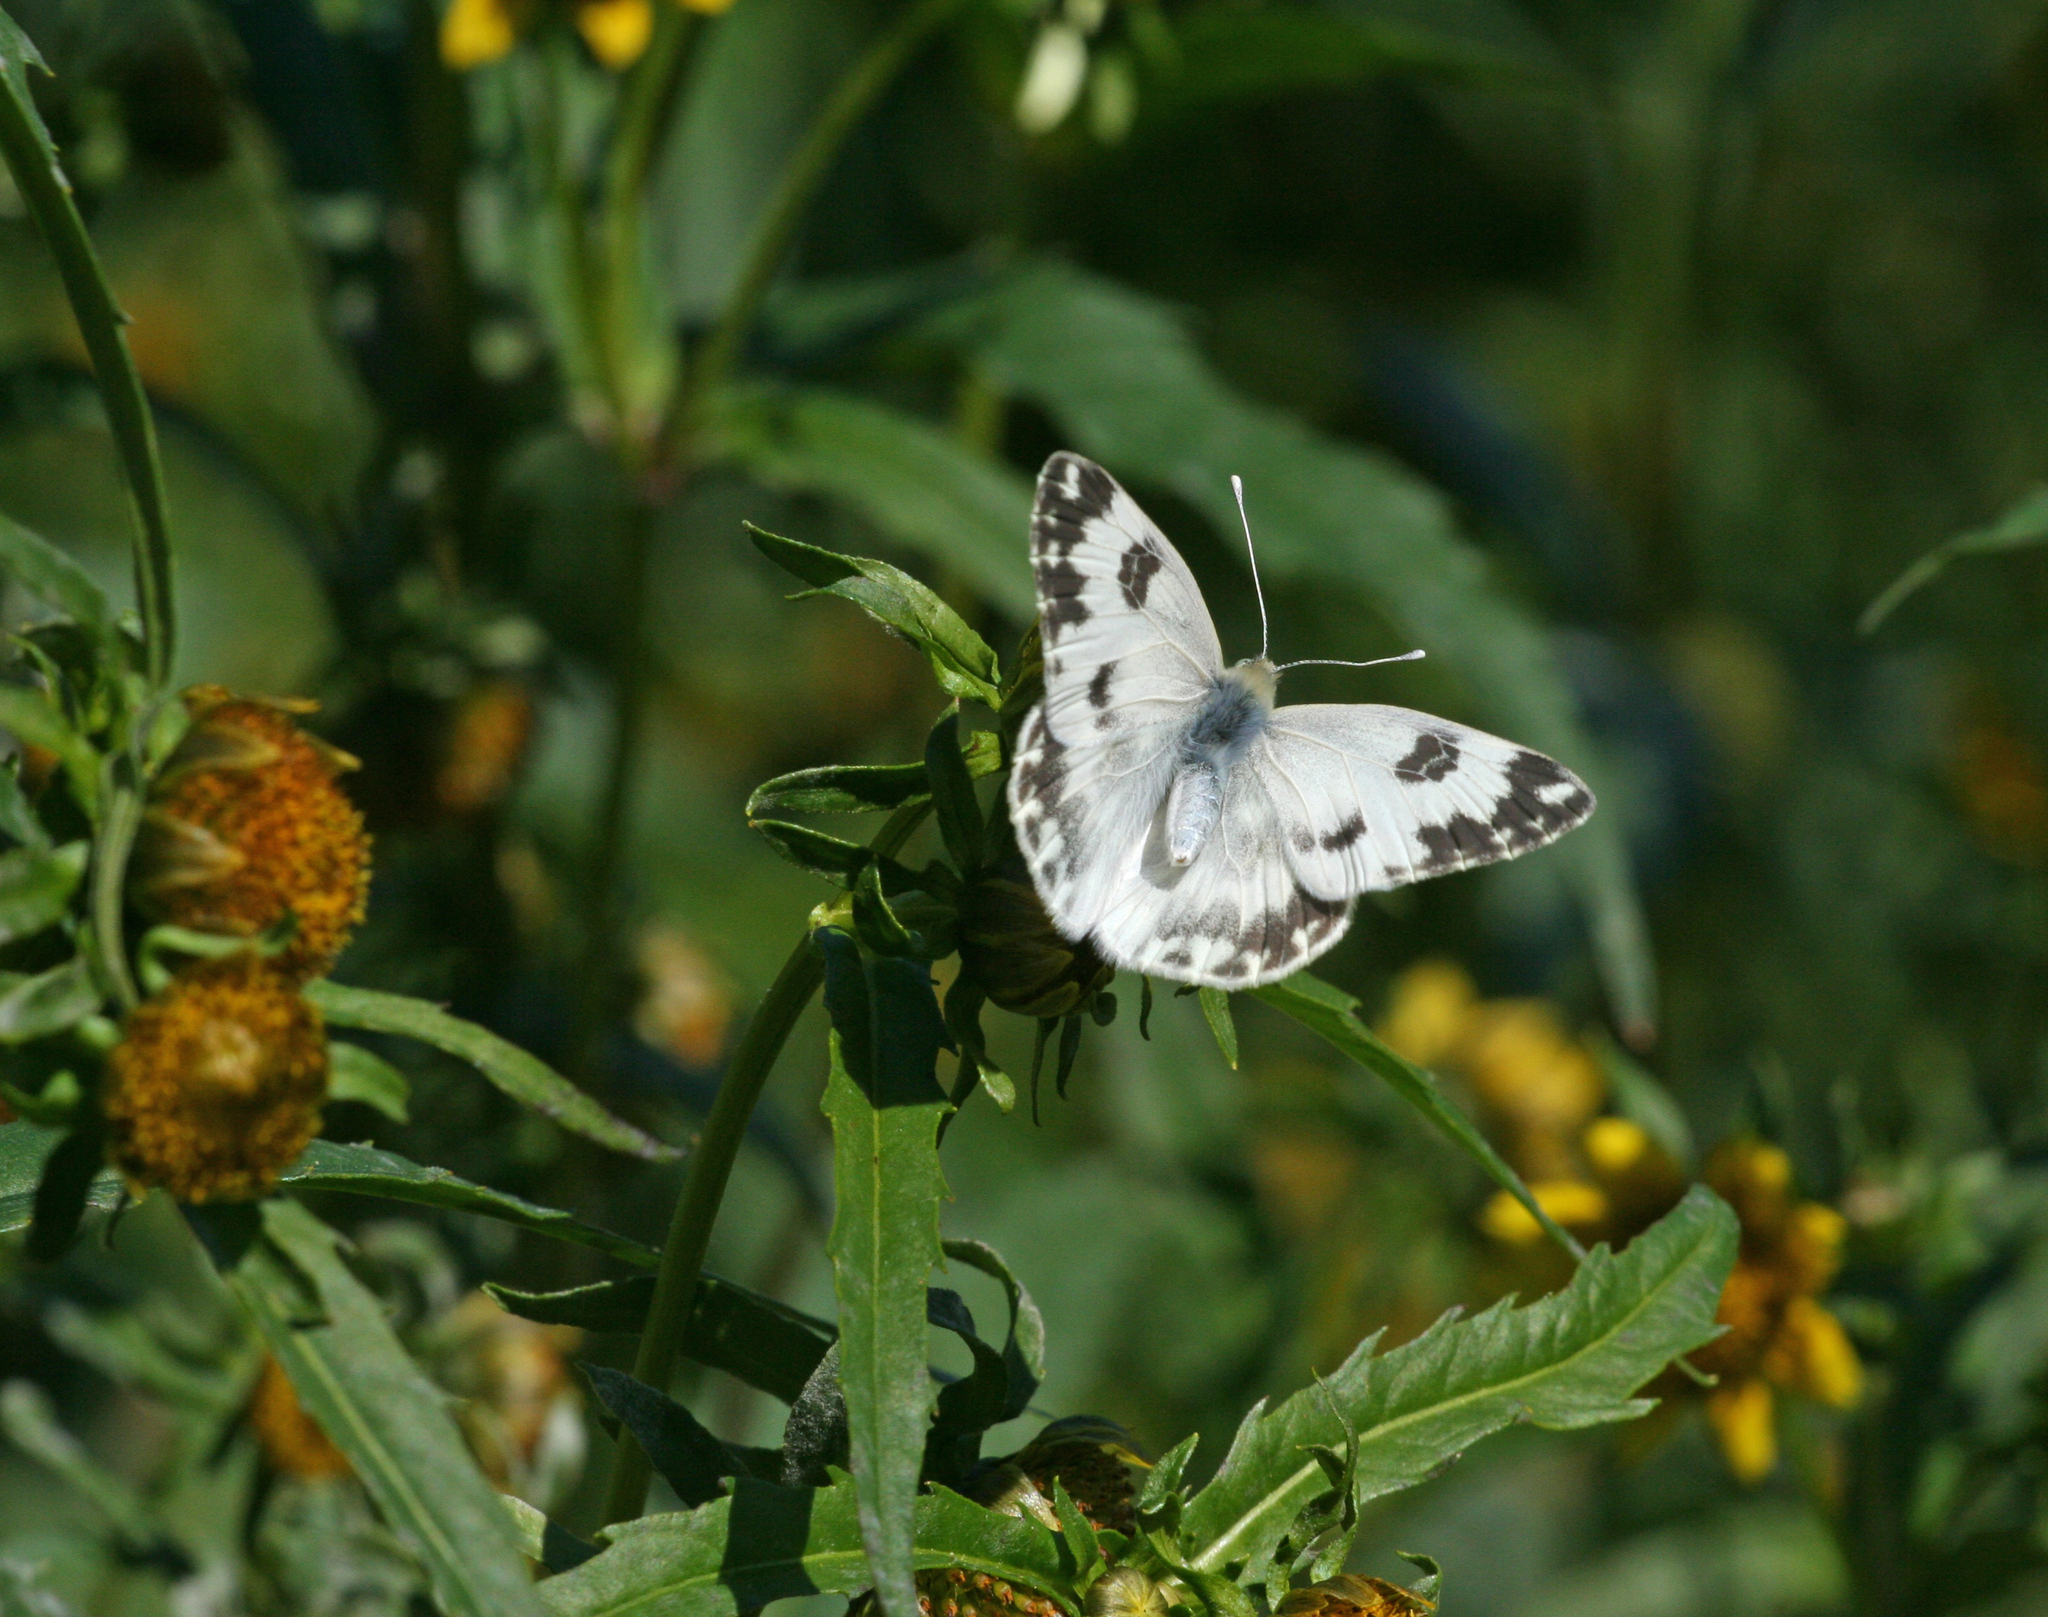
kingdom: Plantae
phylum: Tracheophyta
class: Magnoliopsida
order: Asterales
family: Asteraceae
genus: Bidens
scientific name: Bidens cernua
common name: Nodding bur-marigold
